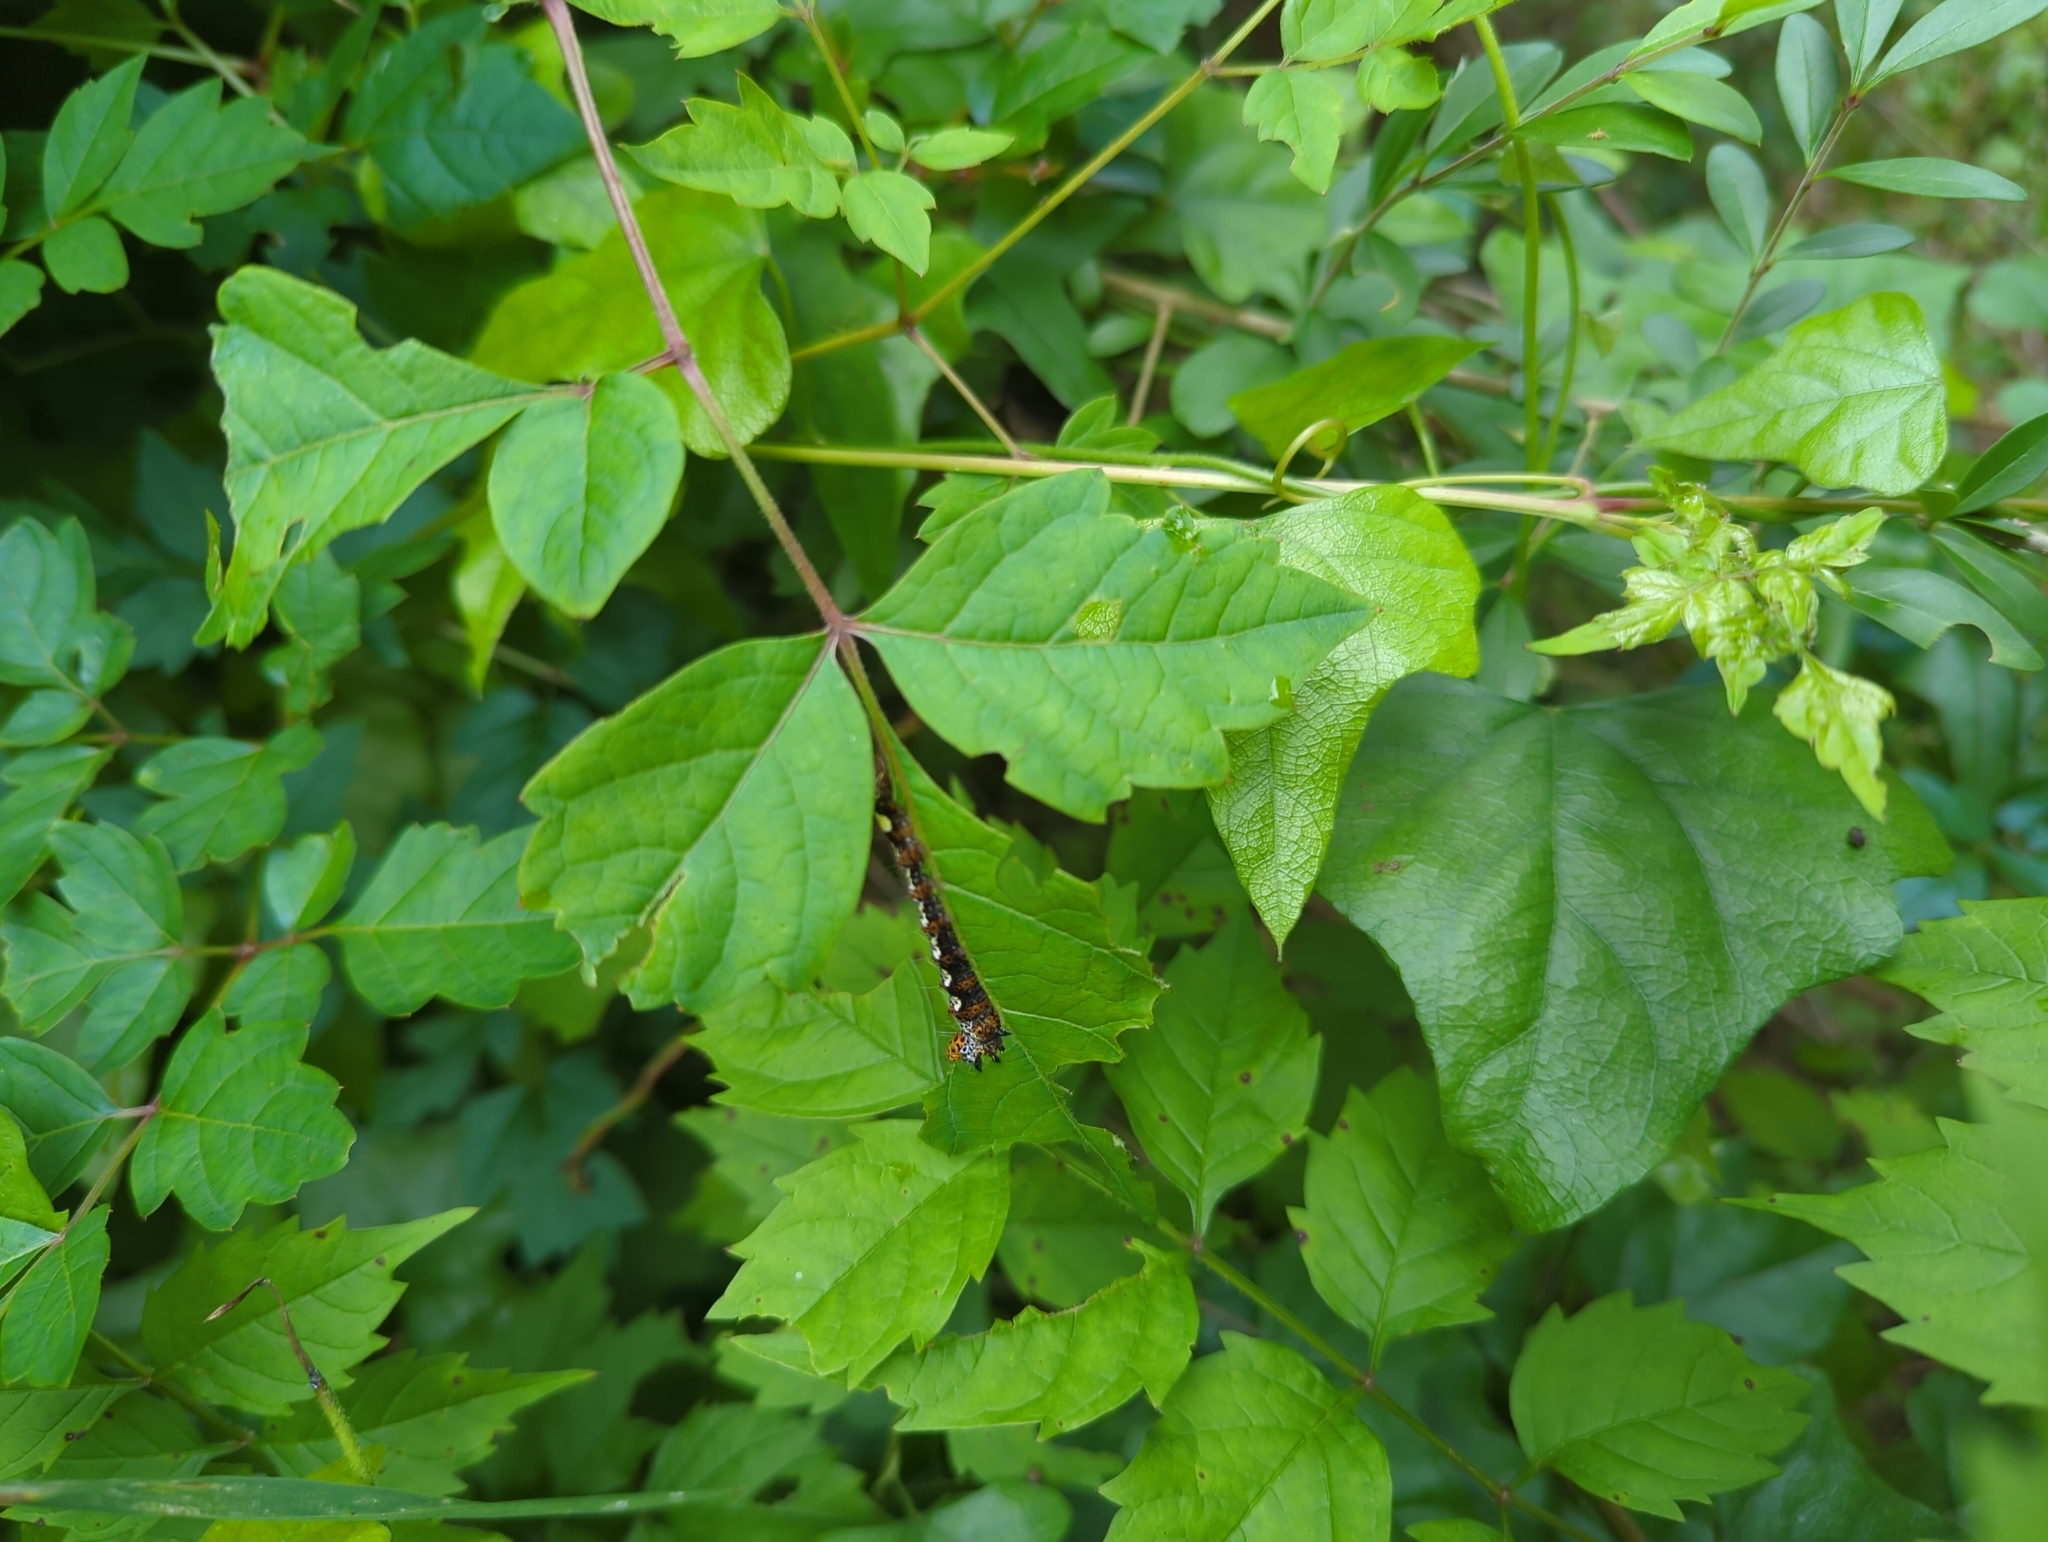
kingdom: Animalia
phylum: Arthropoda
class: Insecta
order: Lepidoptera
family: Noctuidae
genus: Alypia
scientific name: Alypia octomaculata
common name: Eight-spotted forester
